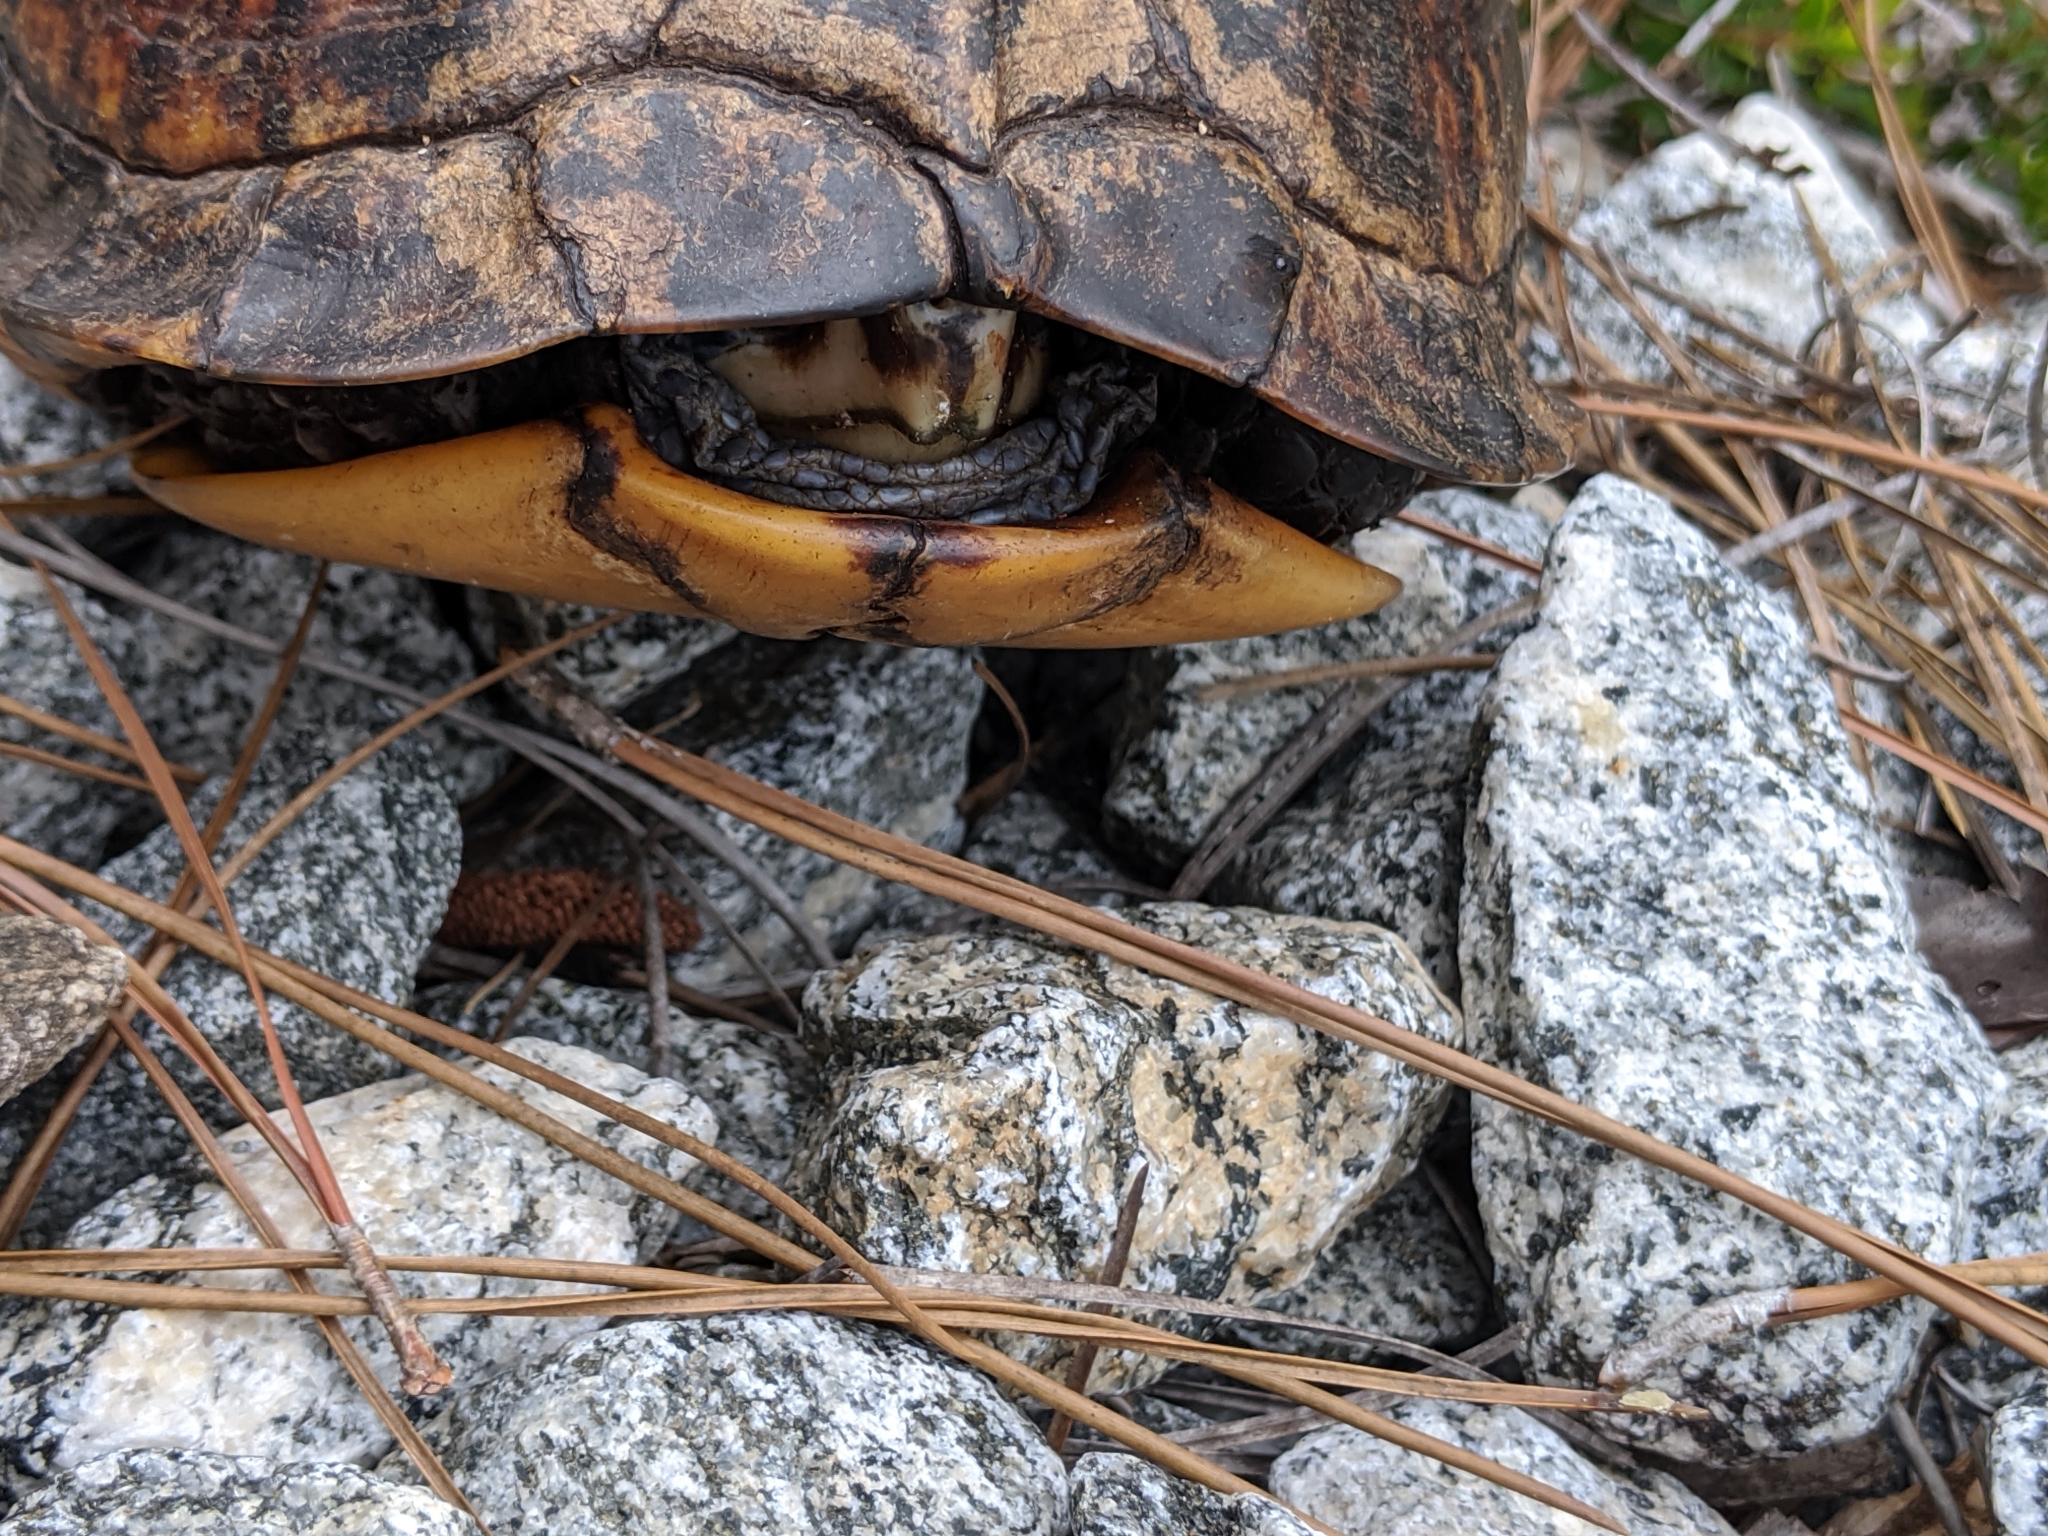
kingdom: Animalia
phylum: Chordata
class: Testudines
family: Emydidae
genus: Terrapene
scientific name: Terrapene carolina
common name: Common box turtle
